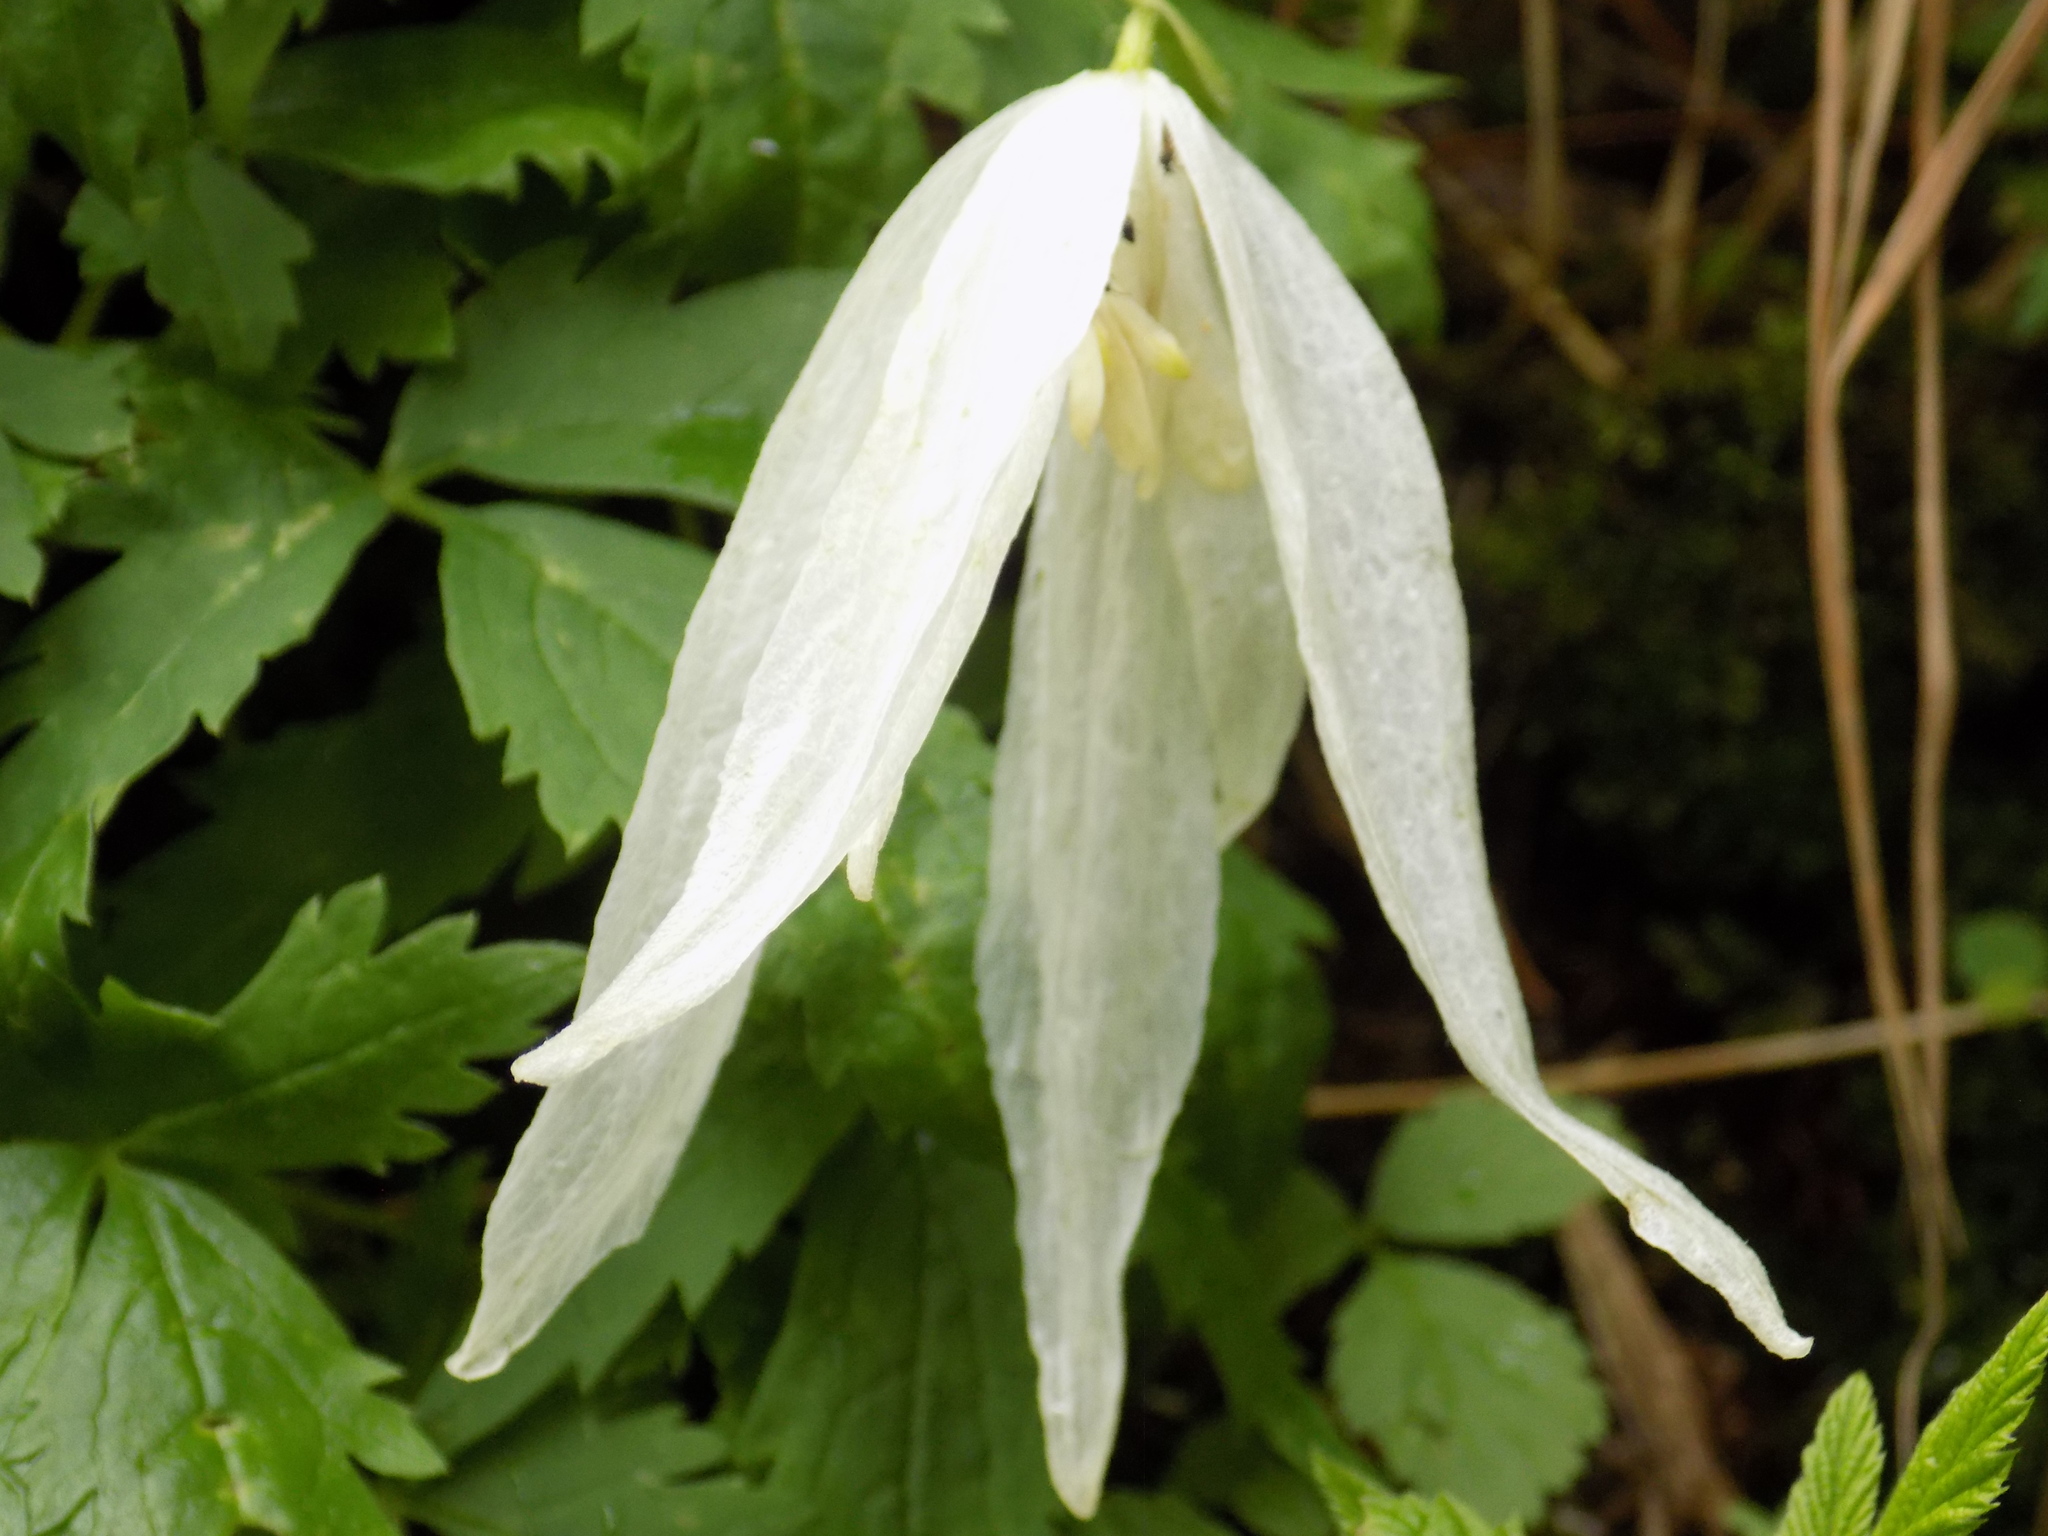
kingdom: Plantae
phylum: Tracheophyta
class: Magnoliopsida
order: Ranunculales
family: Ranunculaceae
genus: Clematis
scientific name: Clematis sibirica
